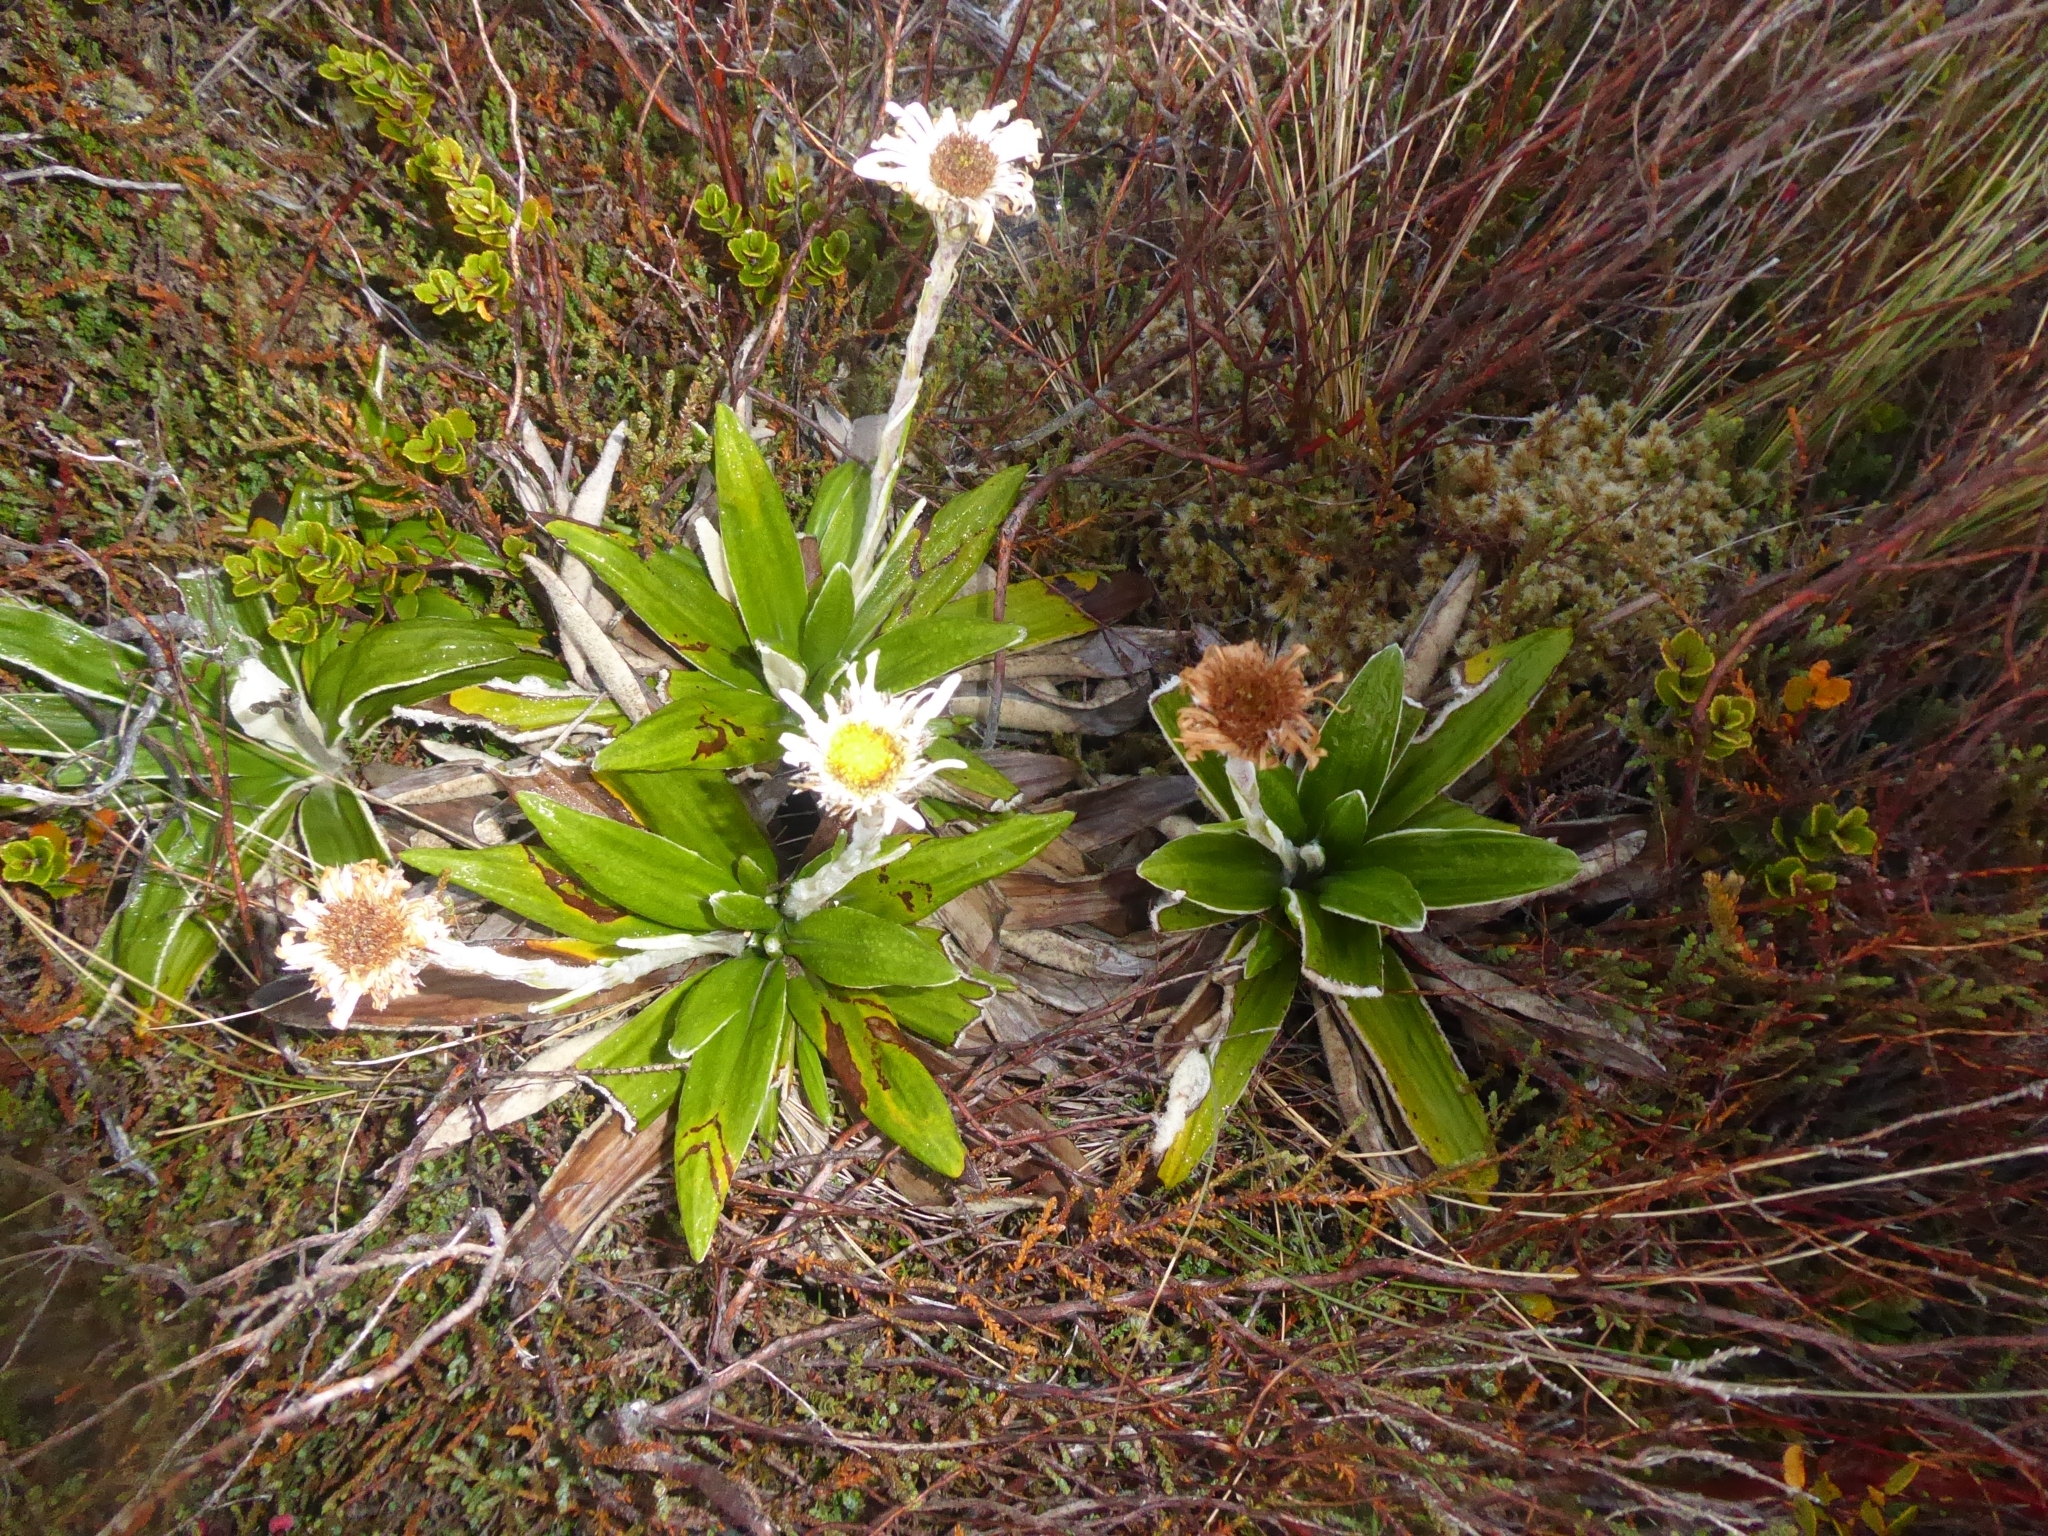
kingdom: Plantae
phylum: Tracheophyta
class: Magnoliopsida
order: Asterales
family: Asteraceae
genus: Celmisia
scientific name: Celmisia spectabilis
